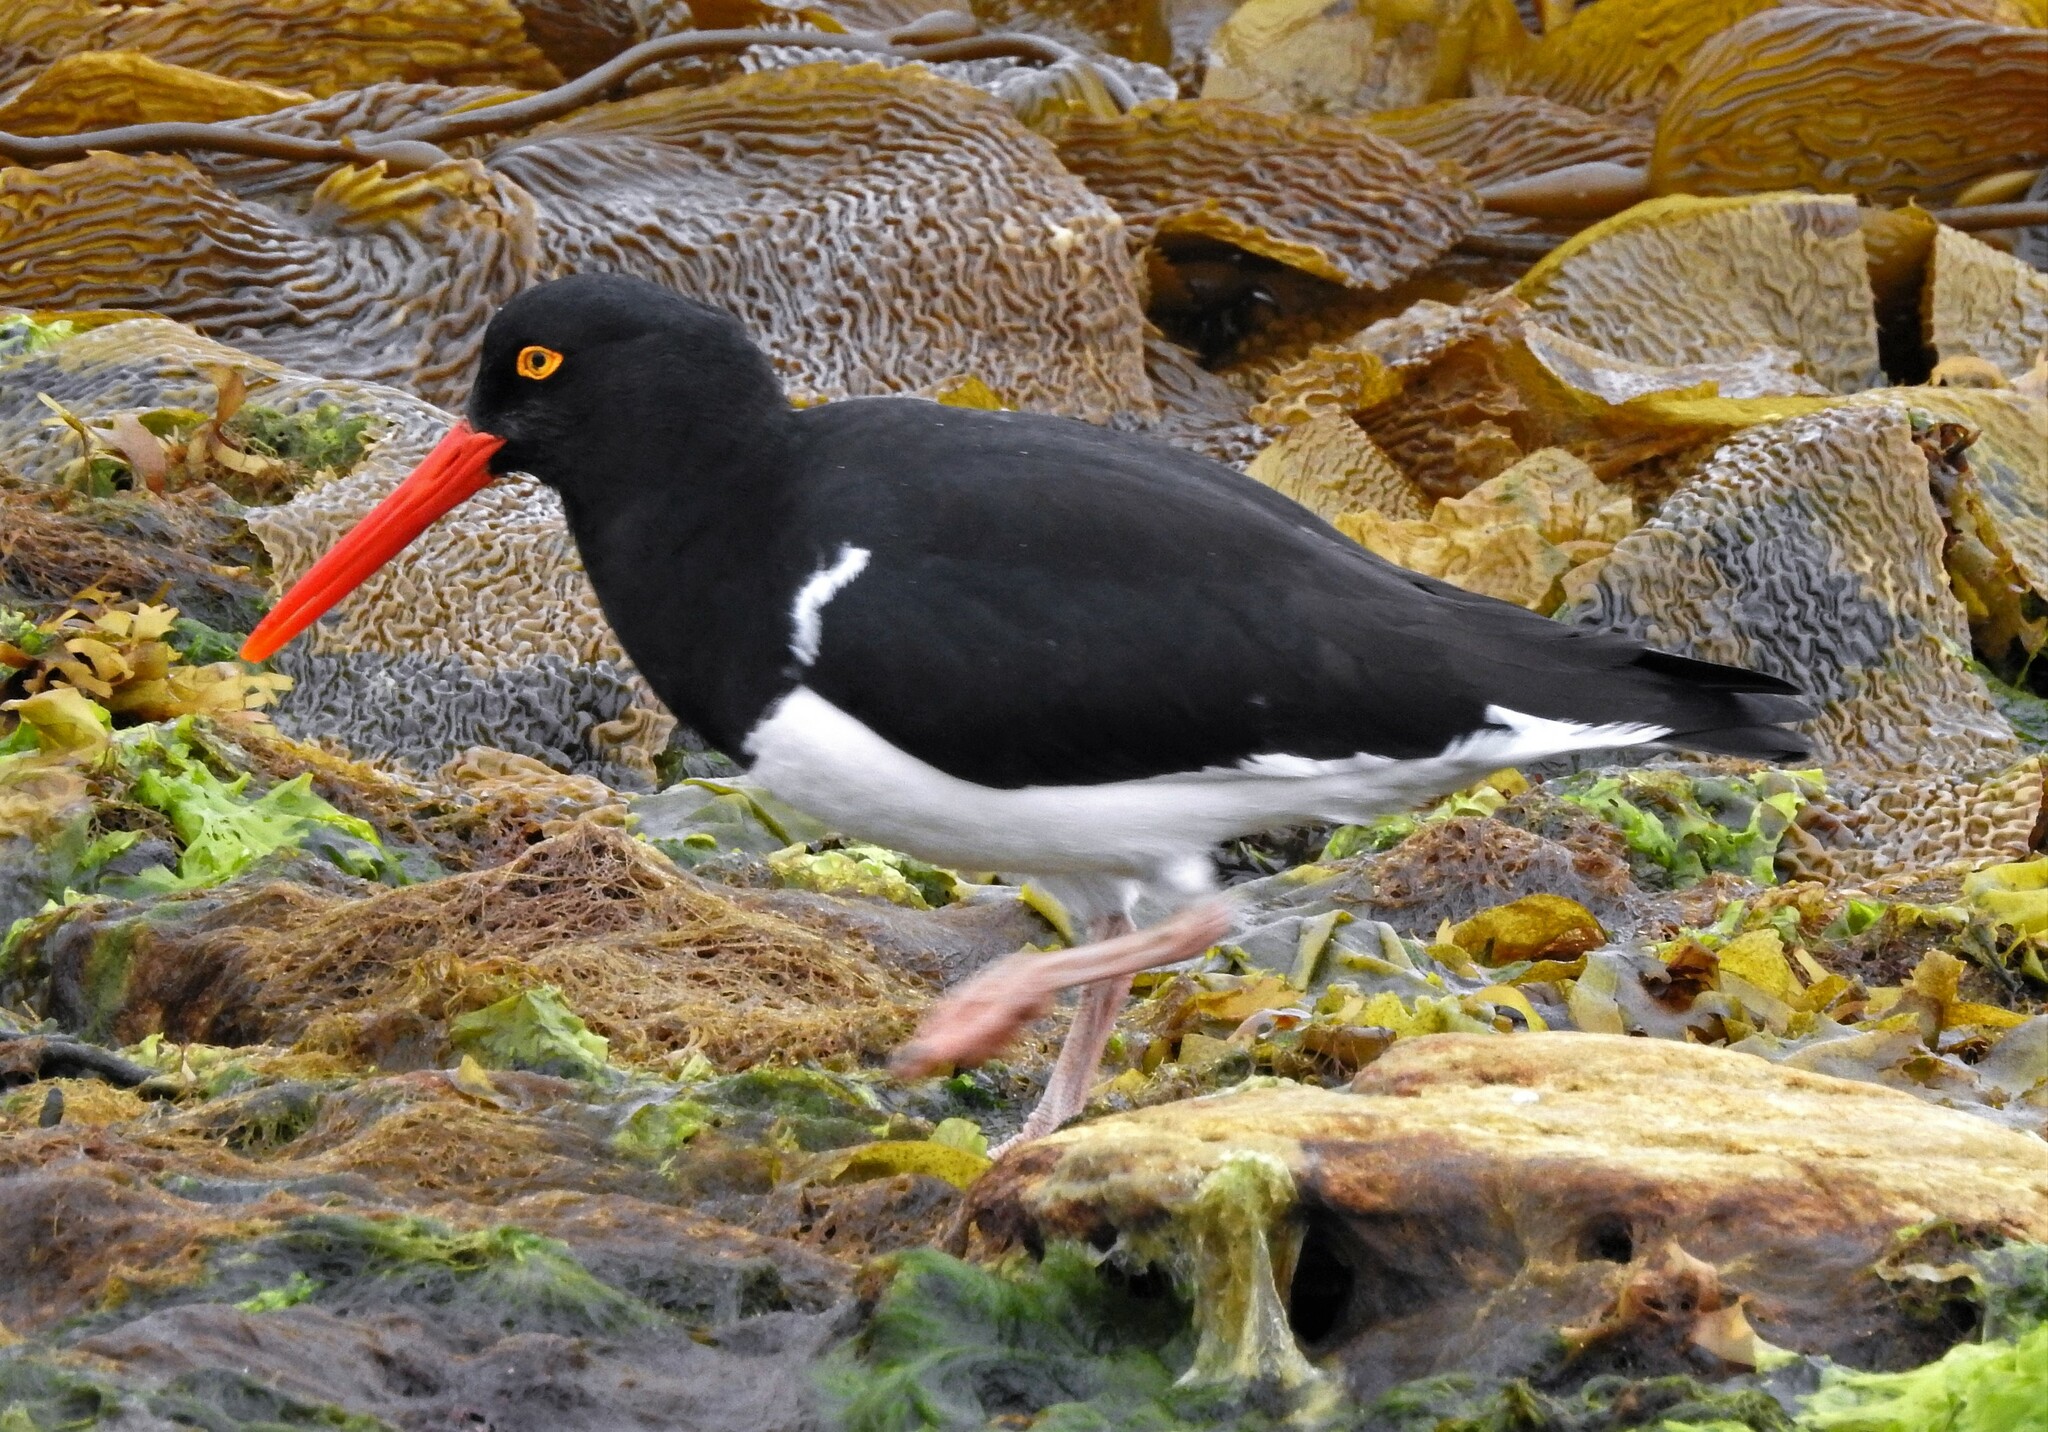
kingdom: Animalia
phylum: Chordata
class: Aves
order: Charadriiformes
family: Haematopodidae
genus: Haematopus
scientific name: Haematopus leucopodus
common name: Magellanic oystercatcher
